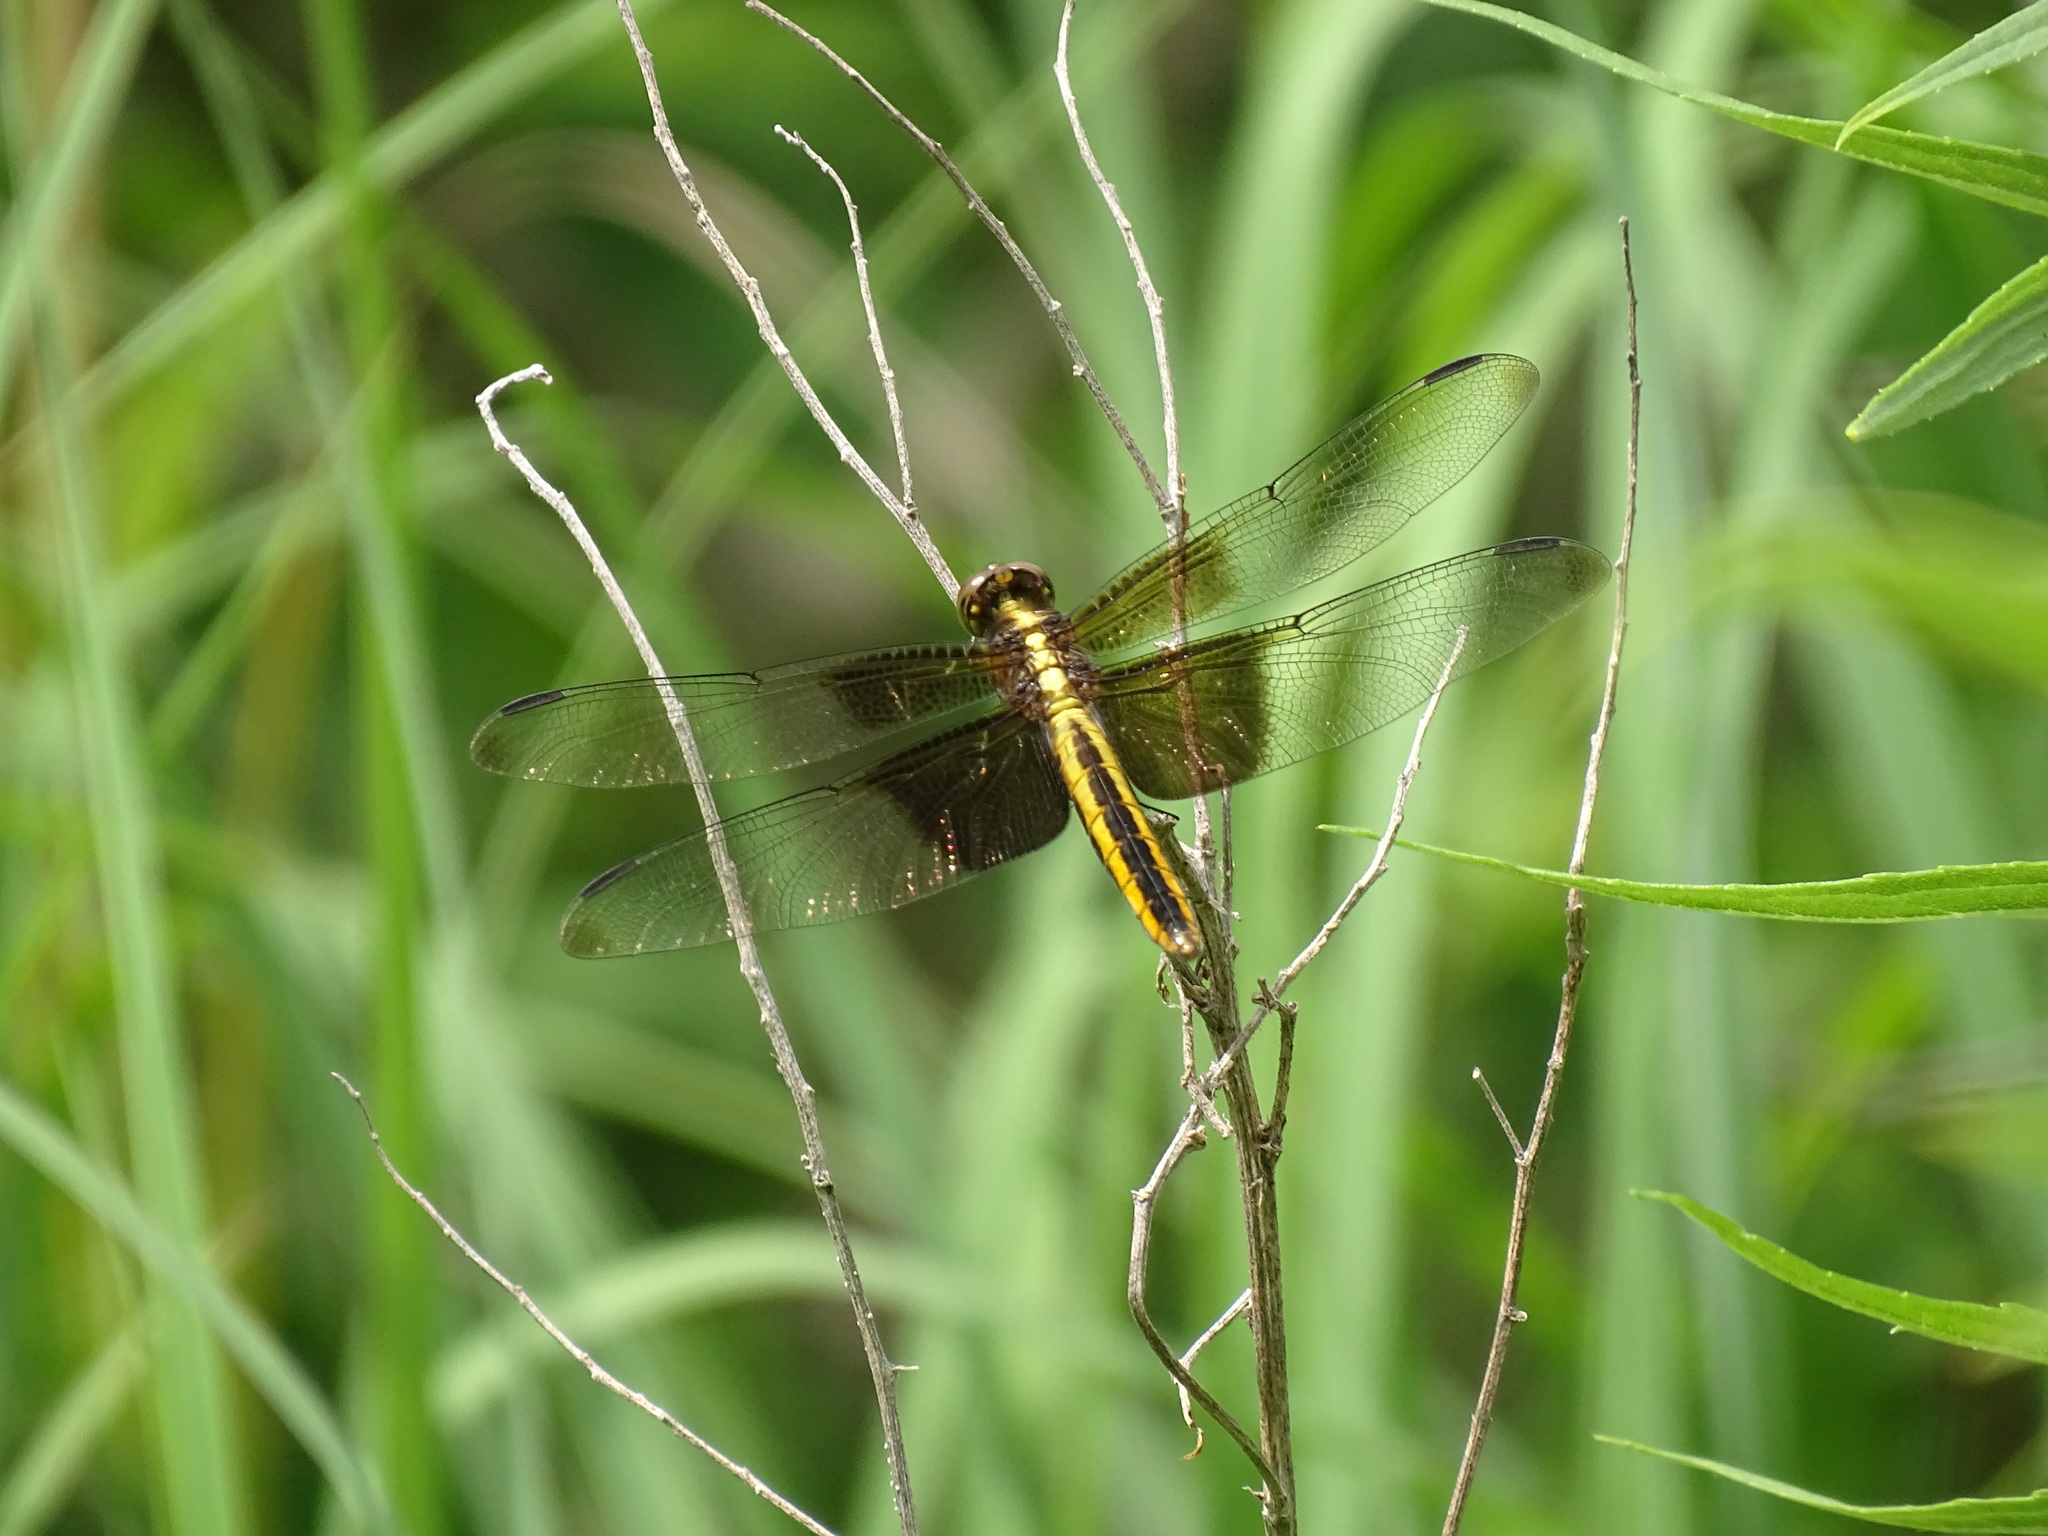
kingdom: Animalia
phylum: Arthropoda
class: Insecta
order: Odonata
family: Libellulidae
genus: Libellula
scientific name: Libellula luctuosa
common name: Widow skimmer
